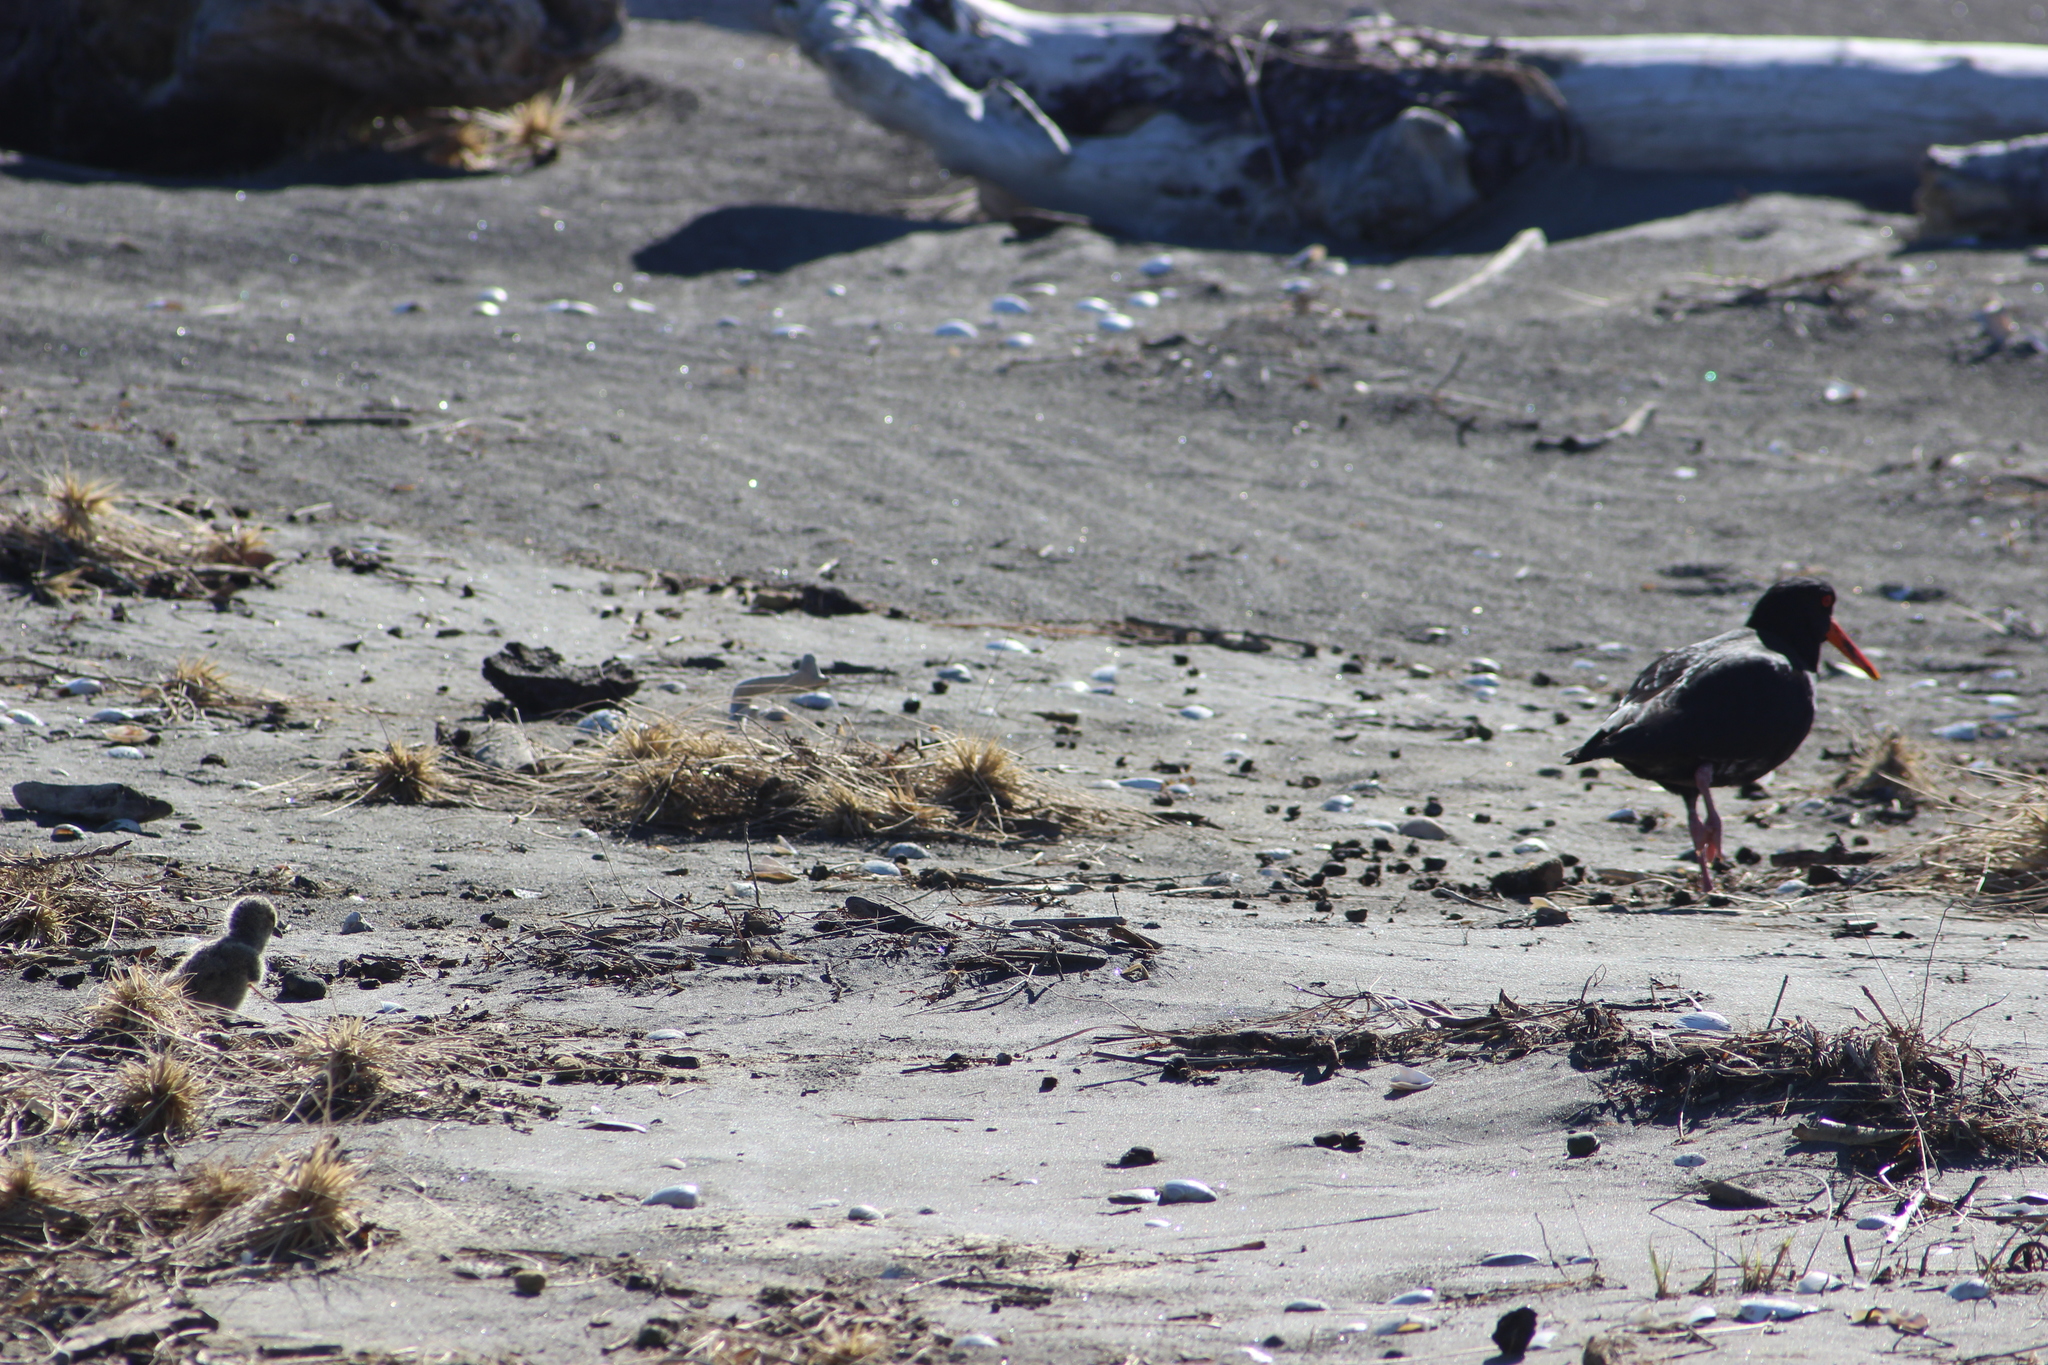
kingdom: Animalia
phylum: Chordata
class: Aves
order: Charadriiformes
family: Haematopodidae
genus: Haematopus
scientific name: Haematopus unicolor
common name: Variable oystercatcher
